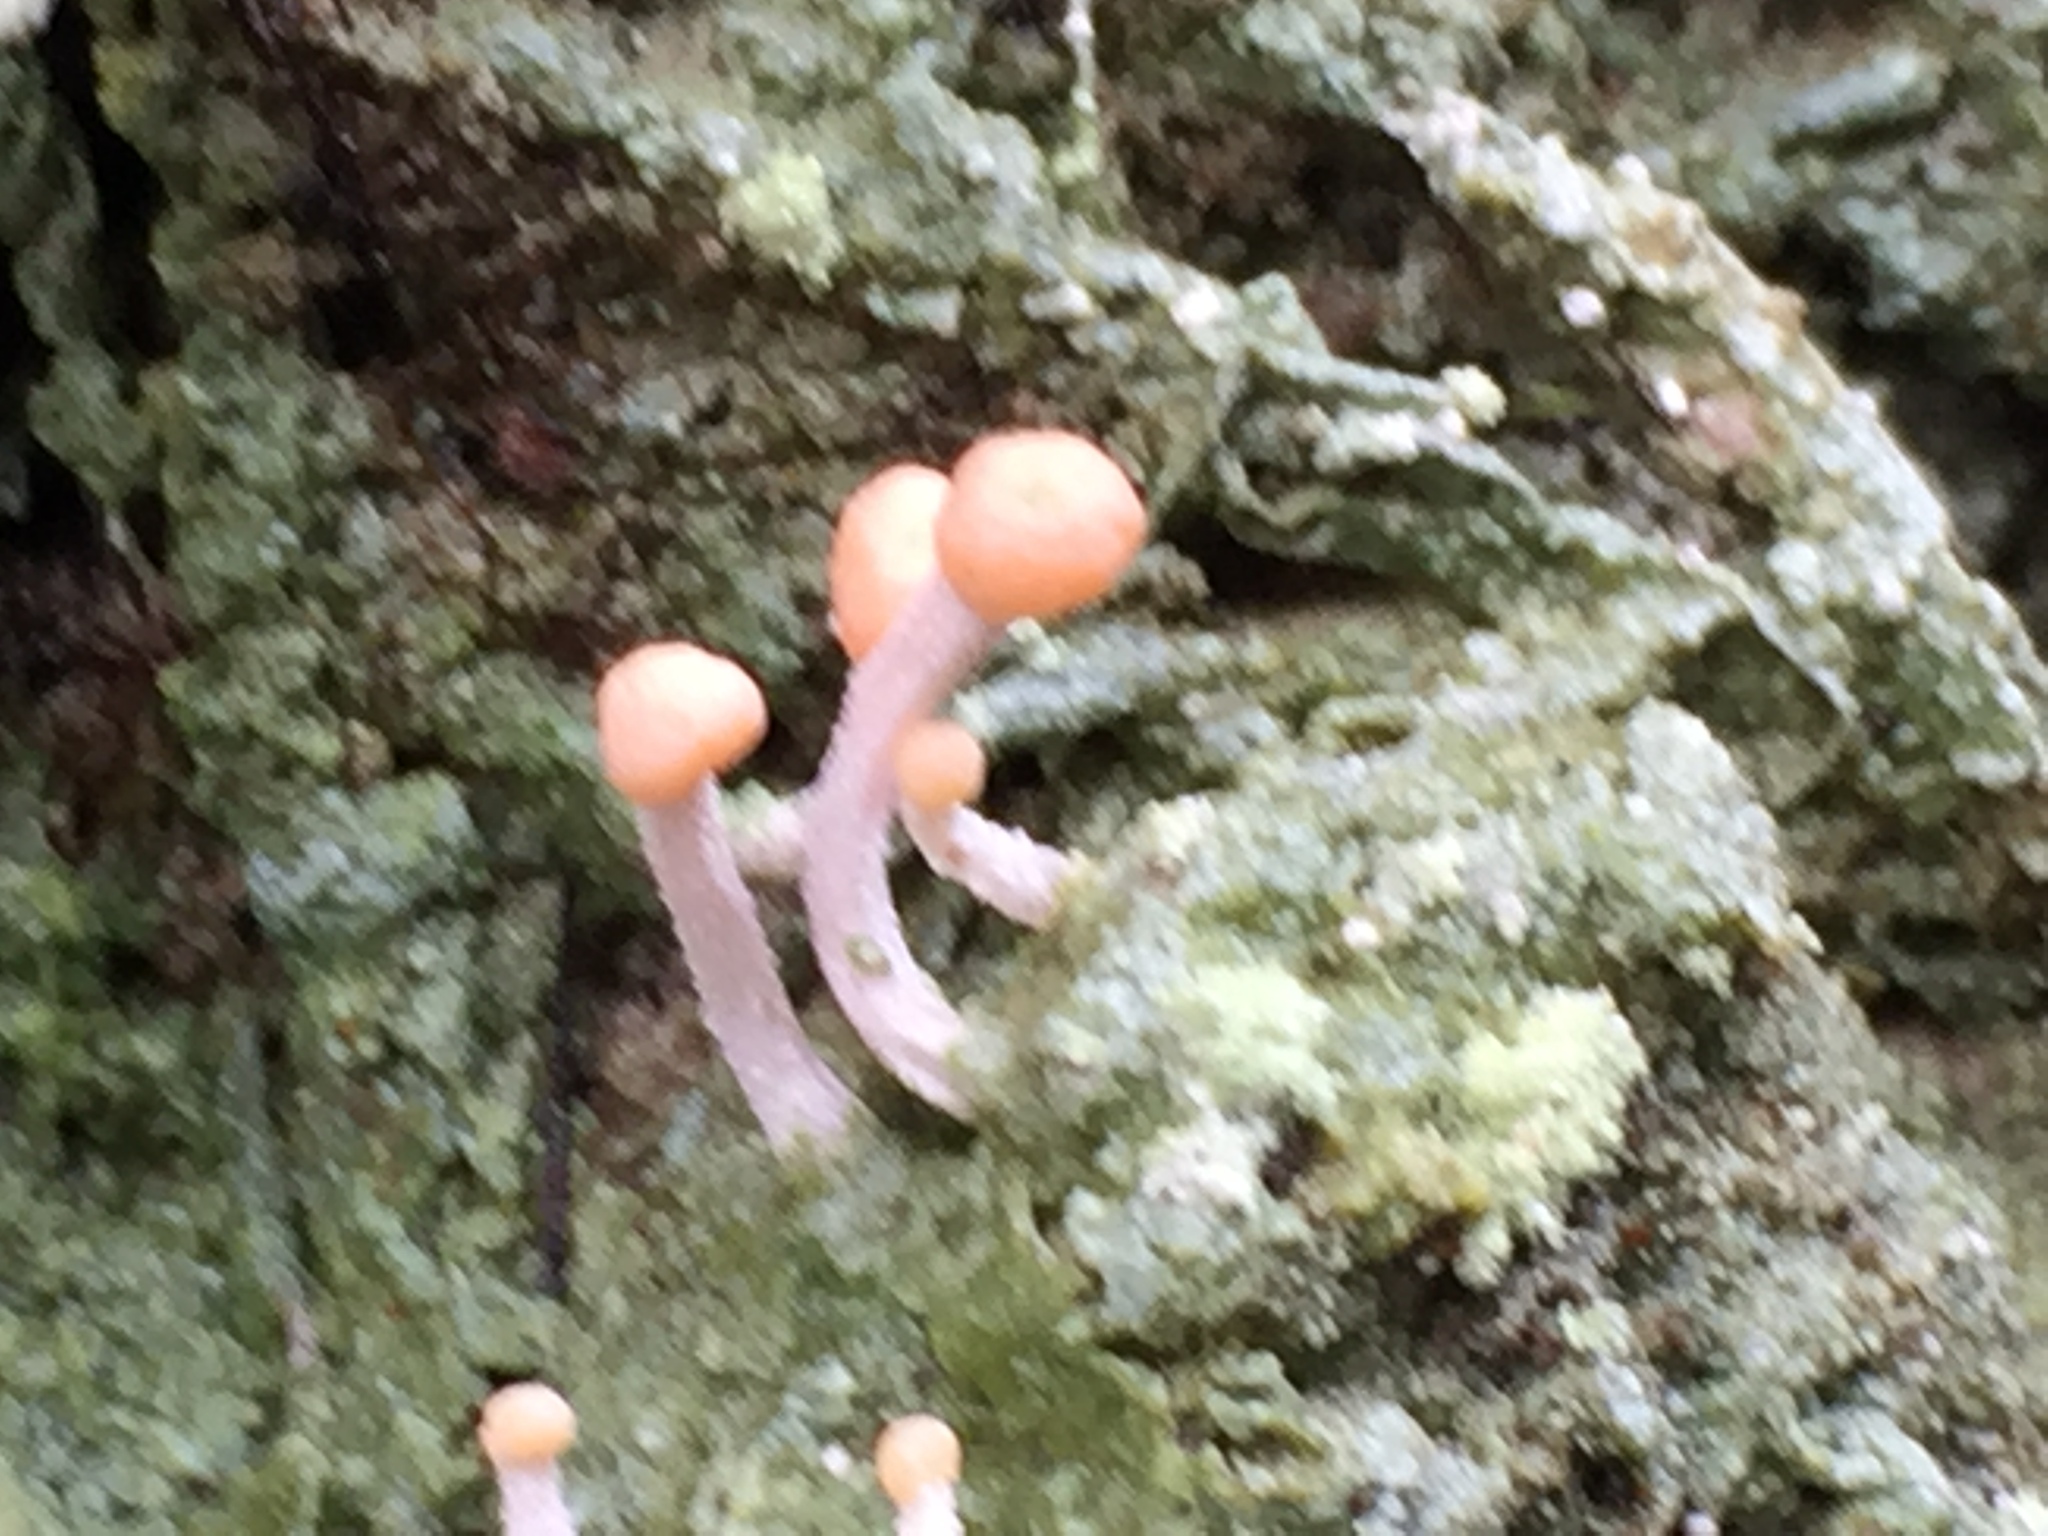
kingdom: Fungi
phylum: Ascomycota
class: Lecanoromycetes
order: Pertusariales
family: Icmadophilaceae
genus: Dibaeis
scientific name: Dibaeis arcuata
